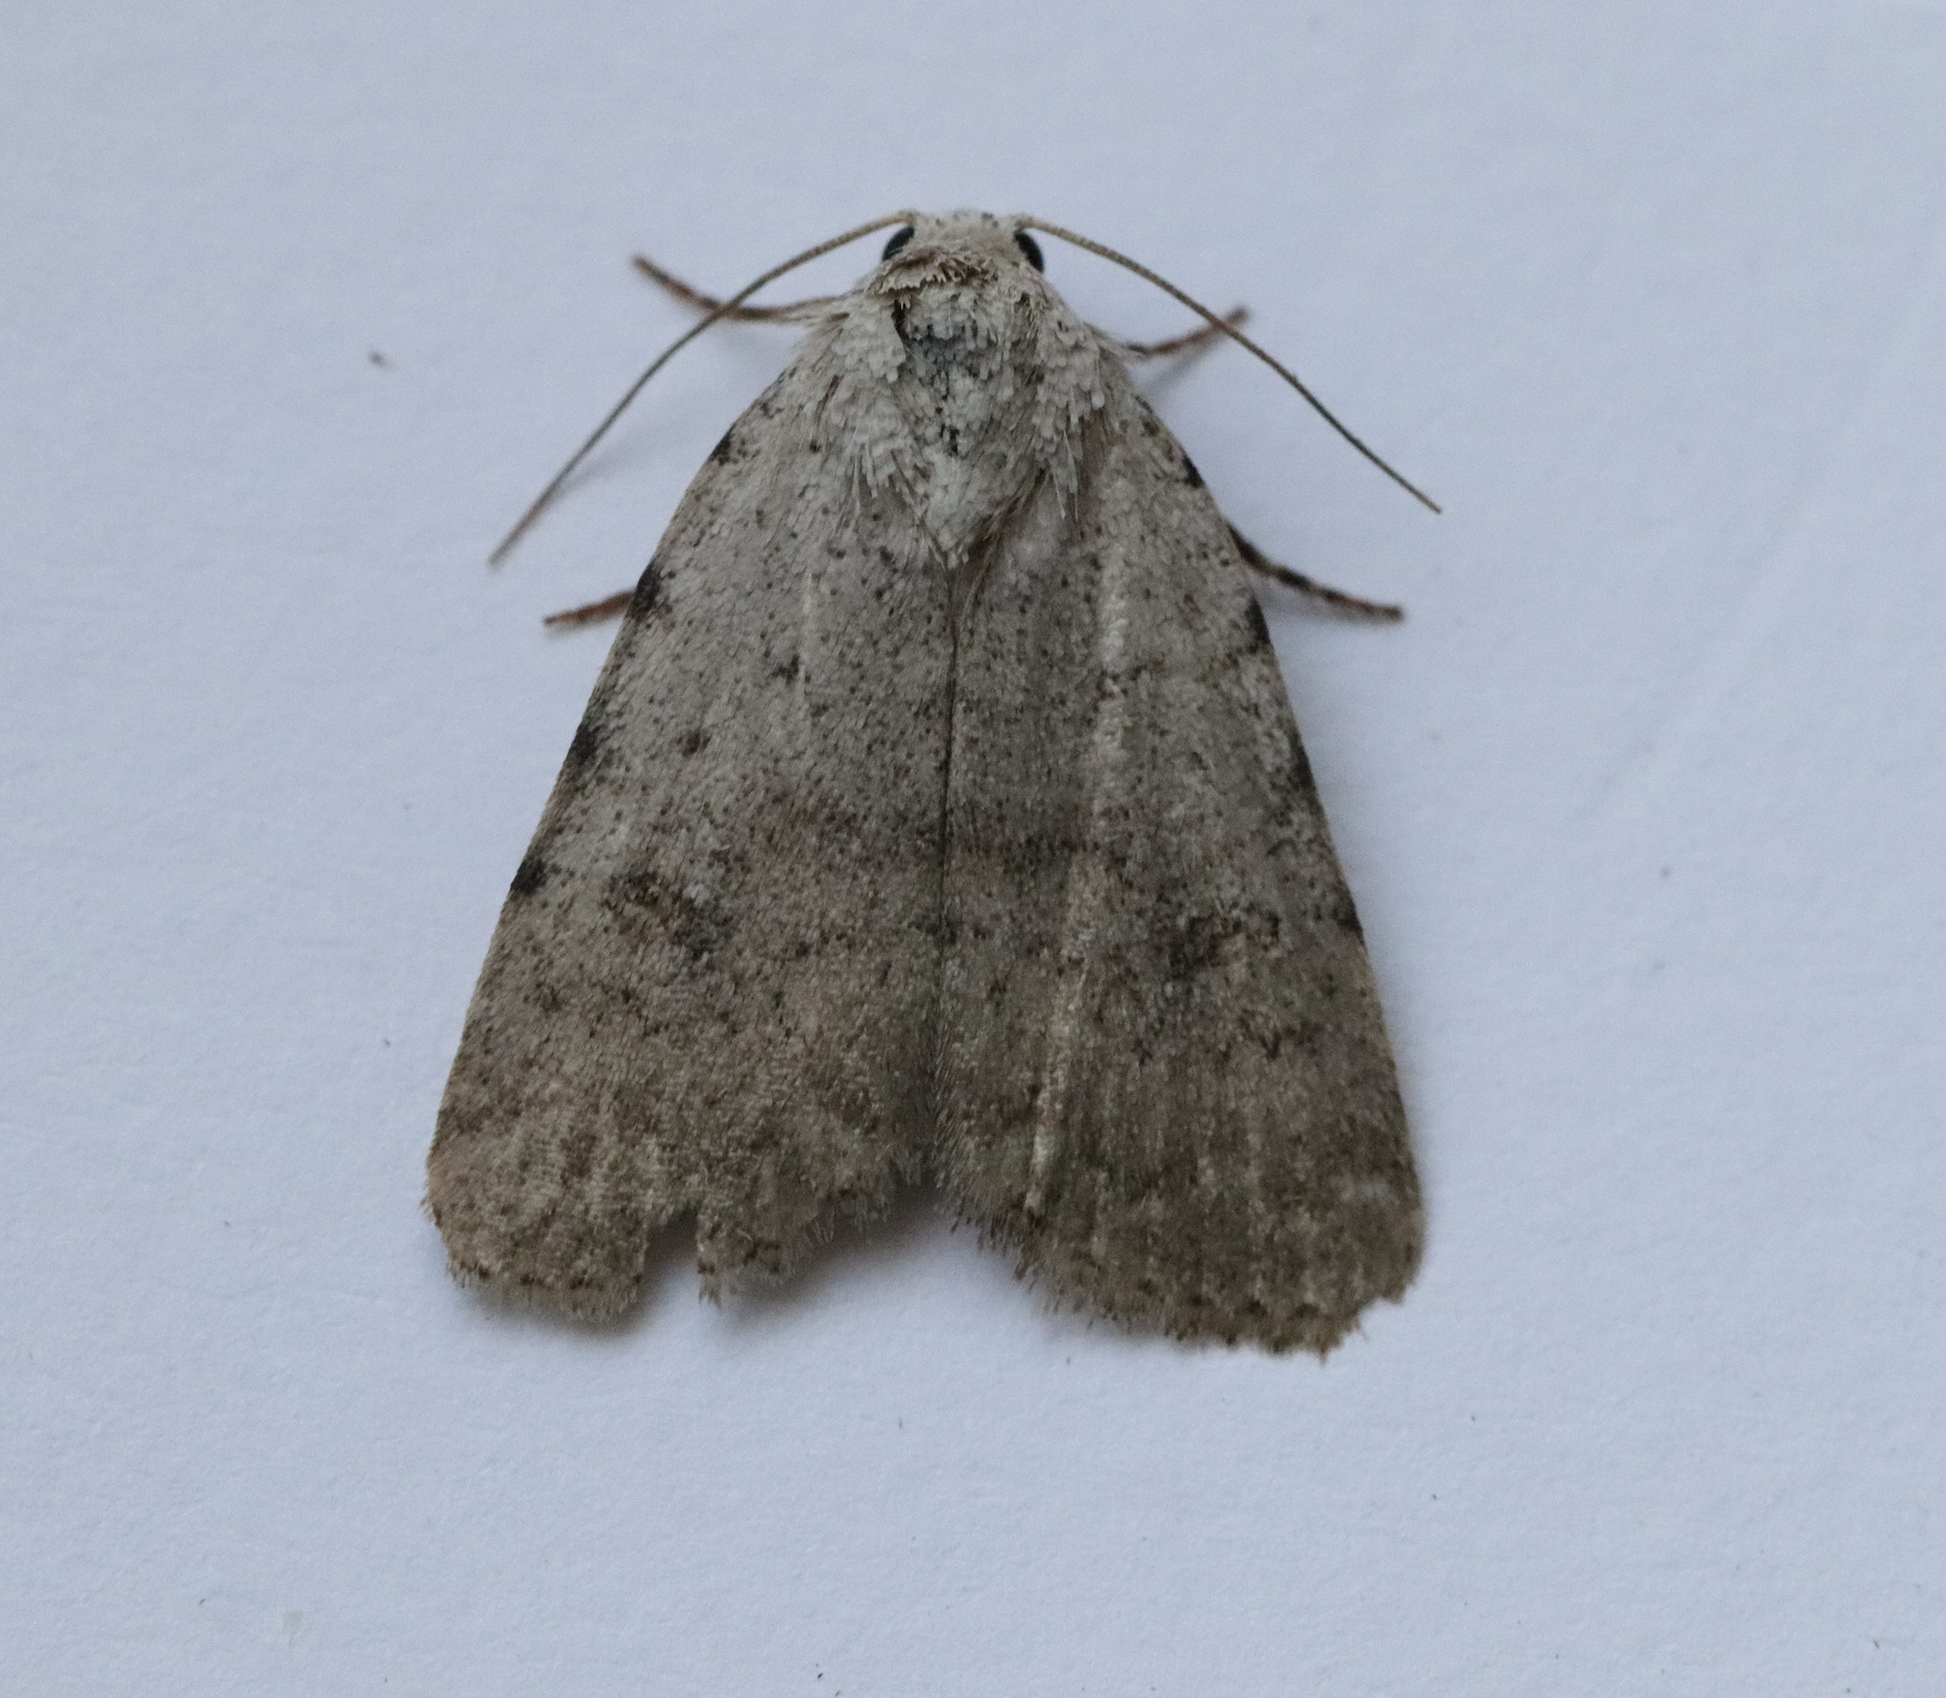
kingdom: Animalia
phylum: Arthropoda
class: Insecta
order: Lepidoptera
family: Noctuidae
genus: Caradrina
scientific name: Caradrina clavipalpis
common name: Pale mottled willow
